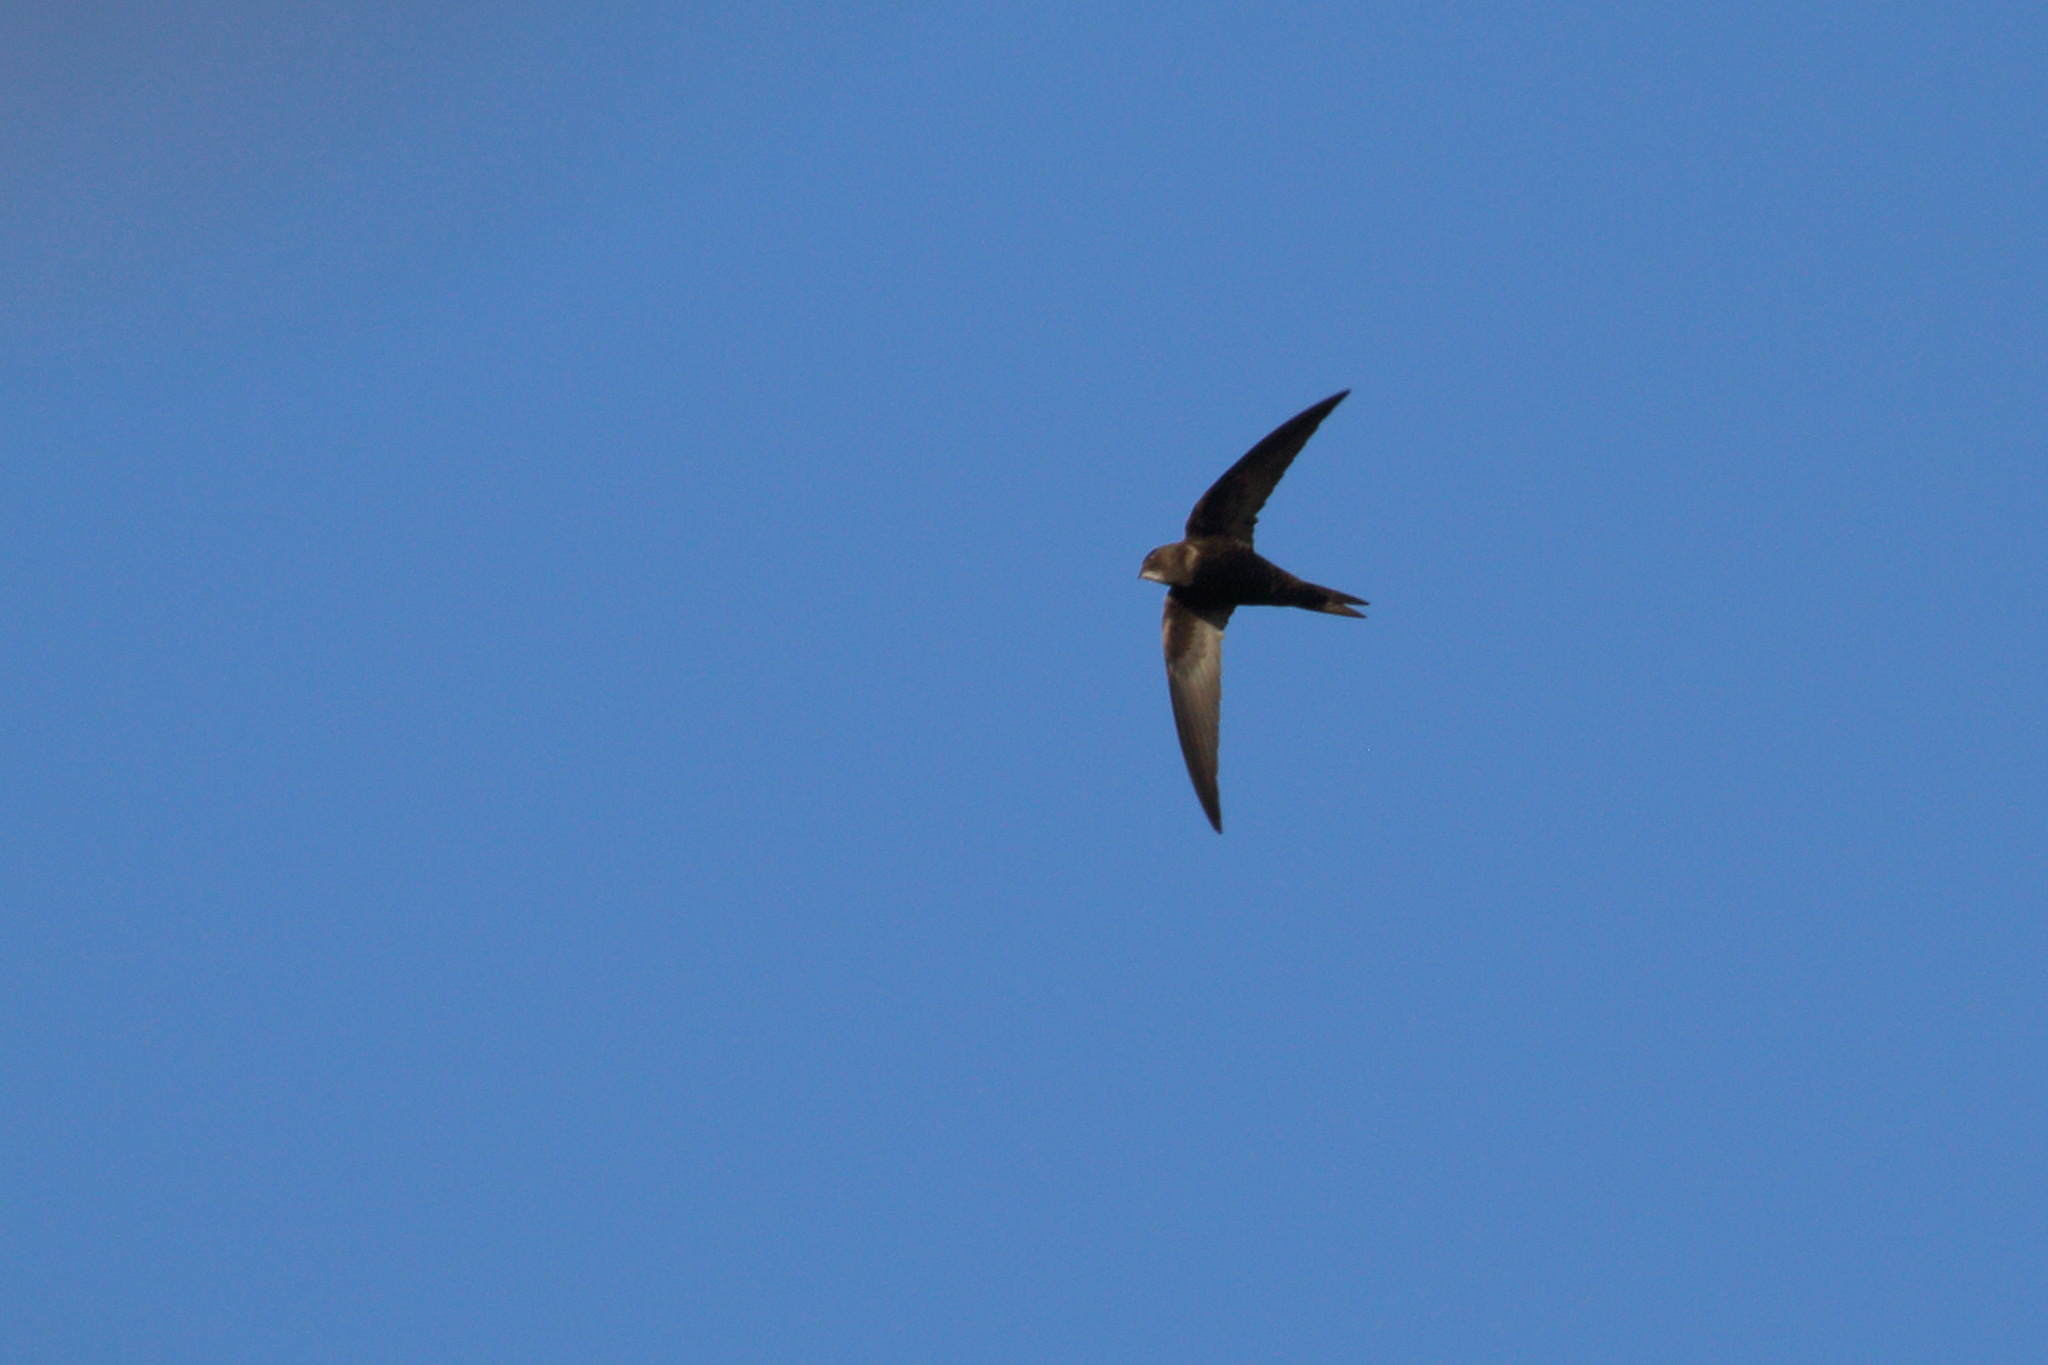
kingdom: Animalia
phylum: Chordata
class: Aves
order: Apodiformes
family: Apodidae
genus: Apus
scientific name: Apus apus
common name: Common swift
